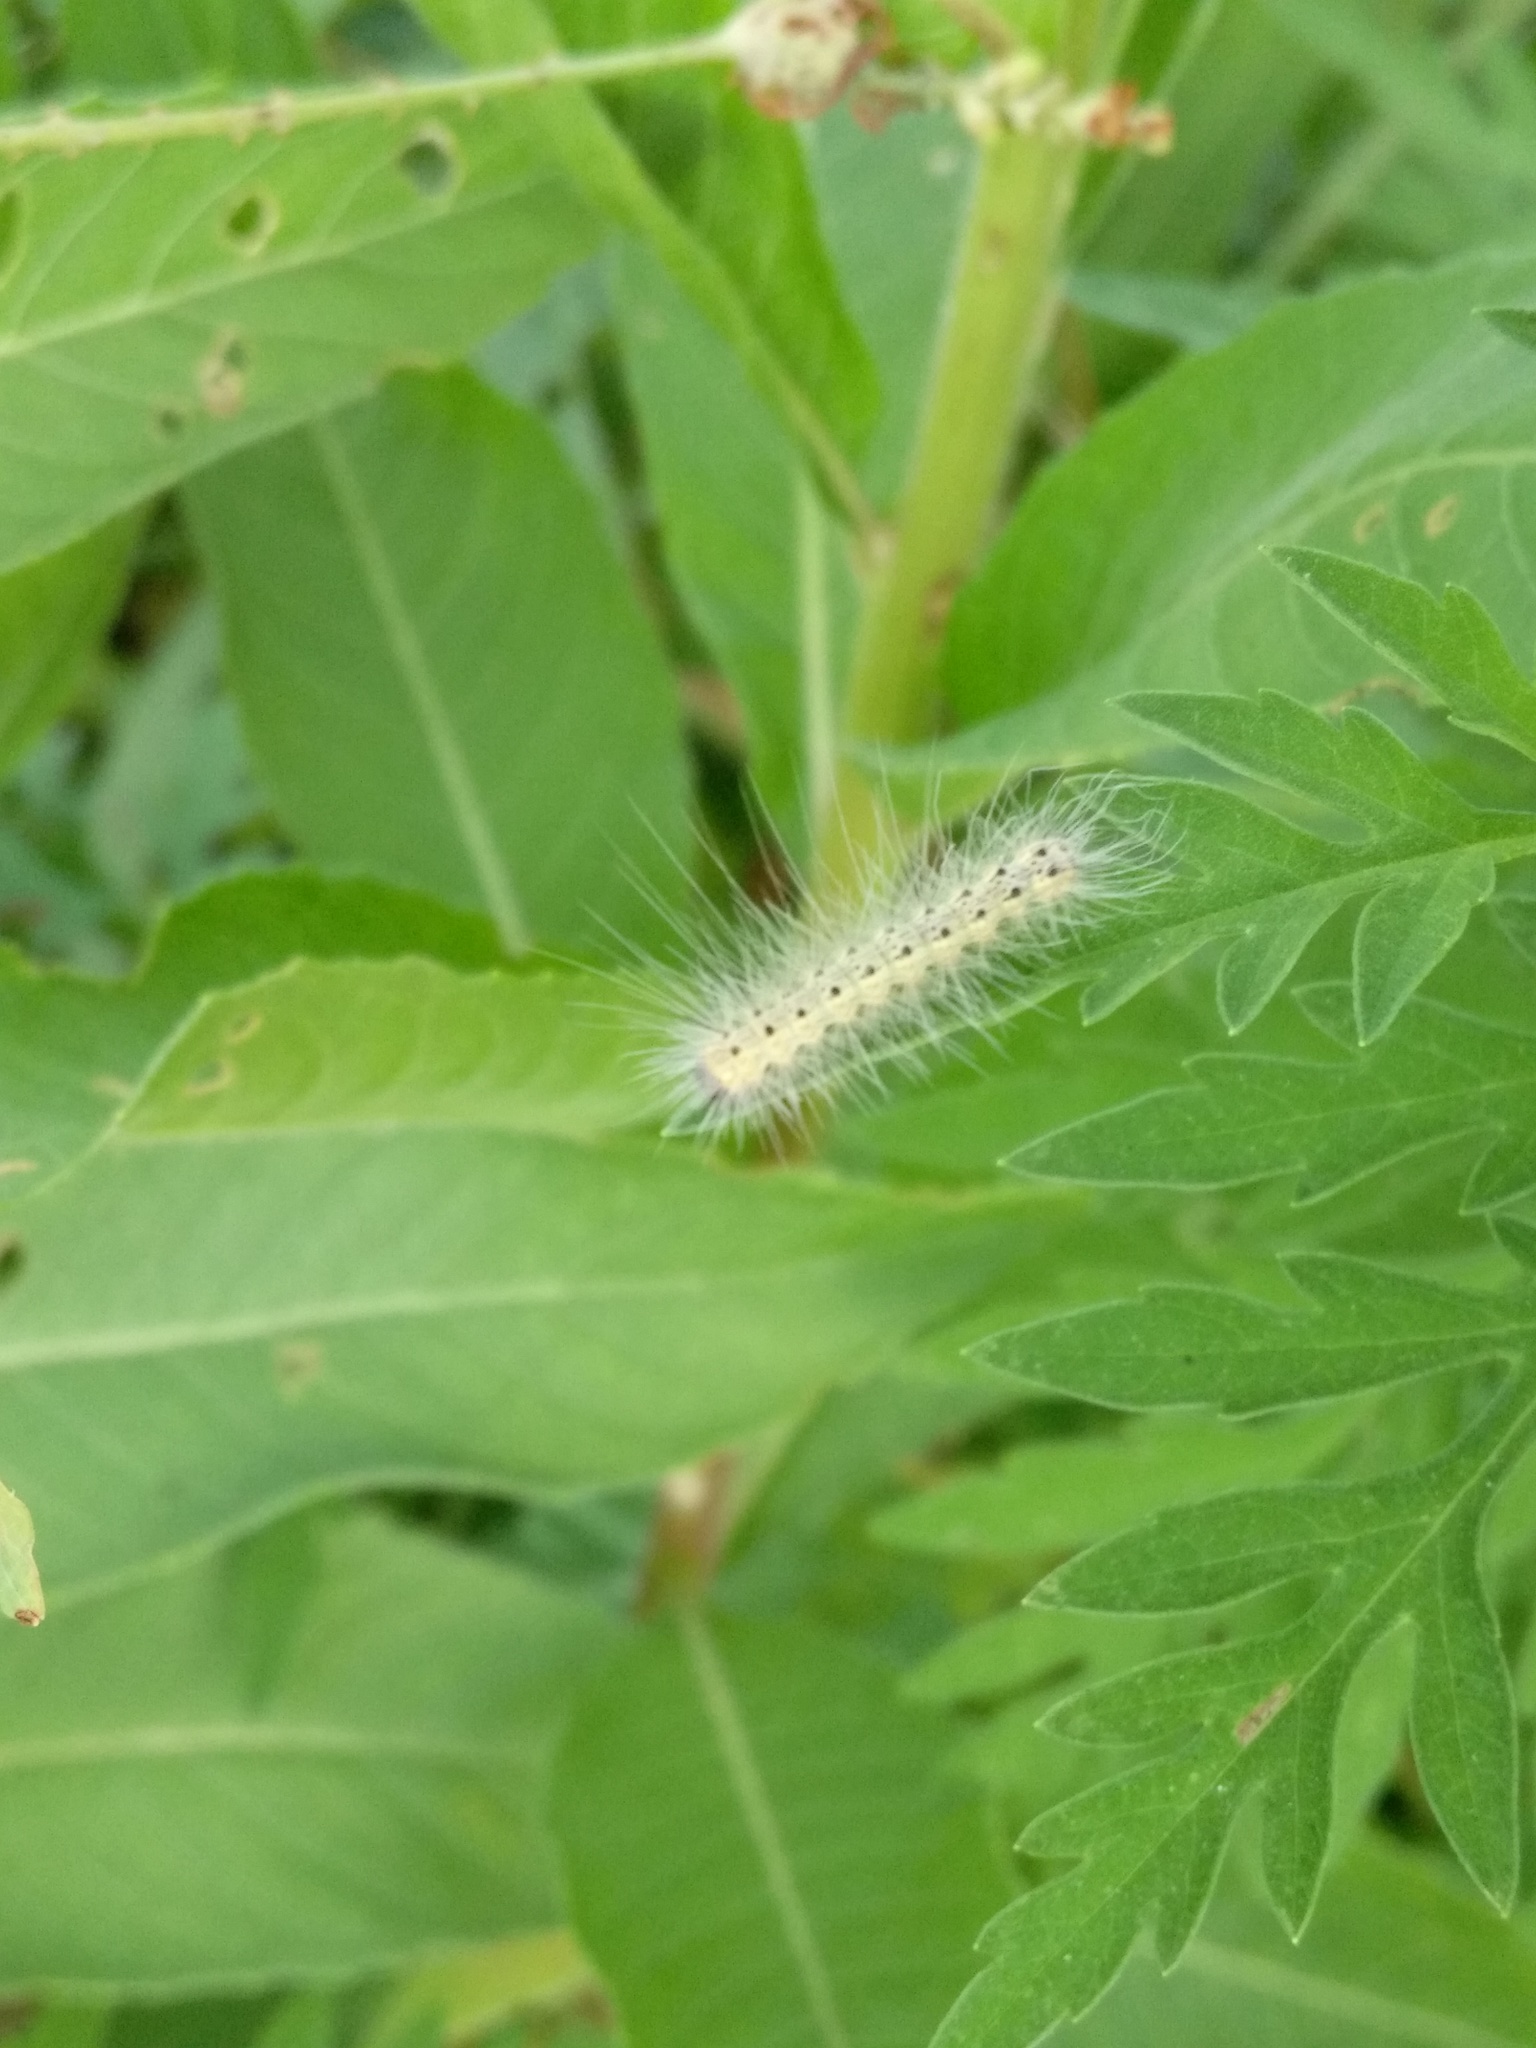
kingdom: Animalia
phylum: Arthropoda
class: Insecta
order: Lepidoptera
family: Erebidae
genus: Hyphantria
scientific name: Hyphantria cunea
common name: American white moth
